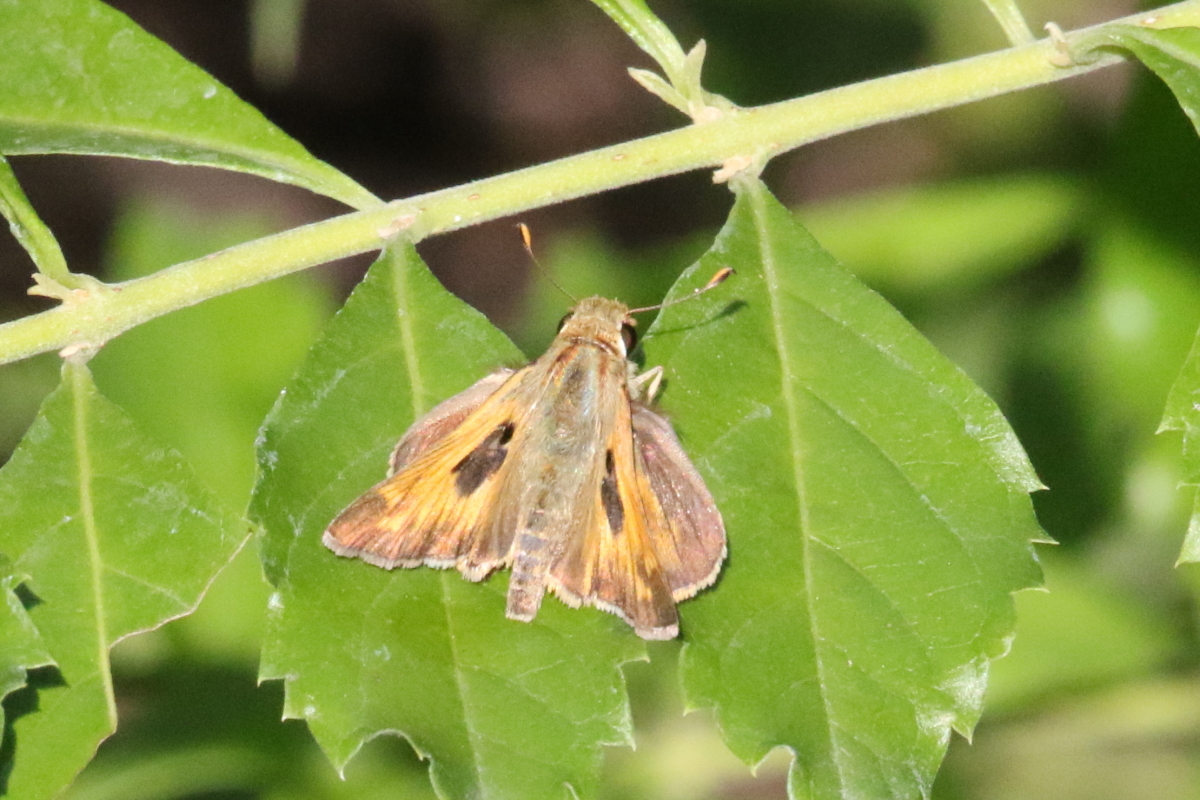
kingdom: Animalia
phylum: Arthropoda
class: Insecta
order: Lepidoptera
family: Hesperiidae
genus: Atalopedes
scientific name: Atalopedes
